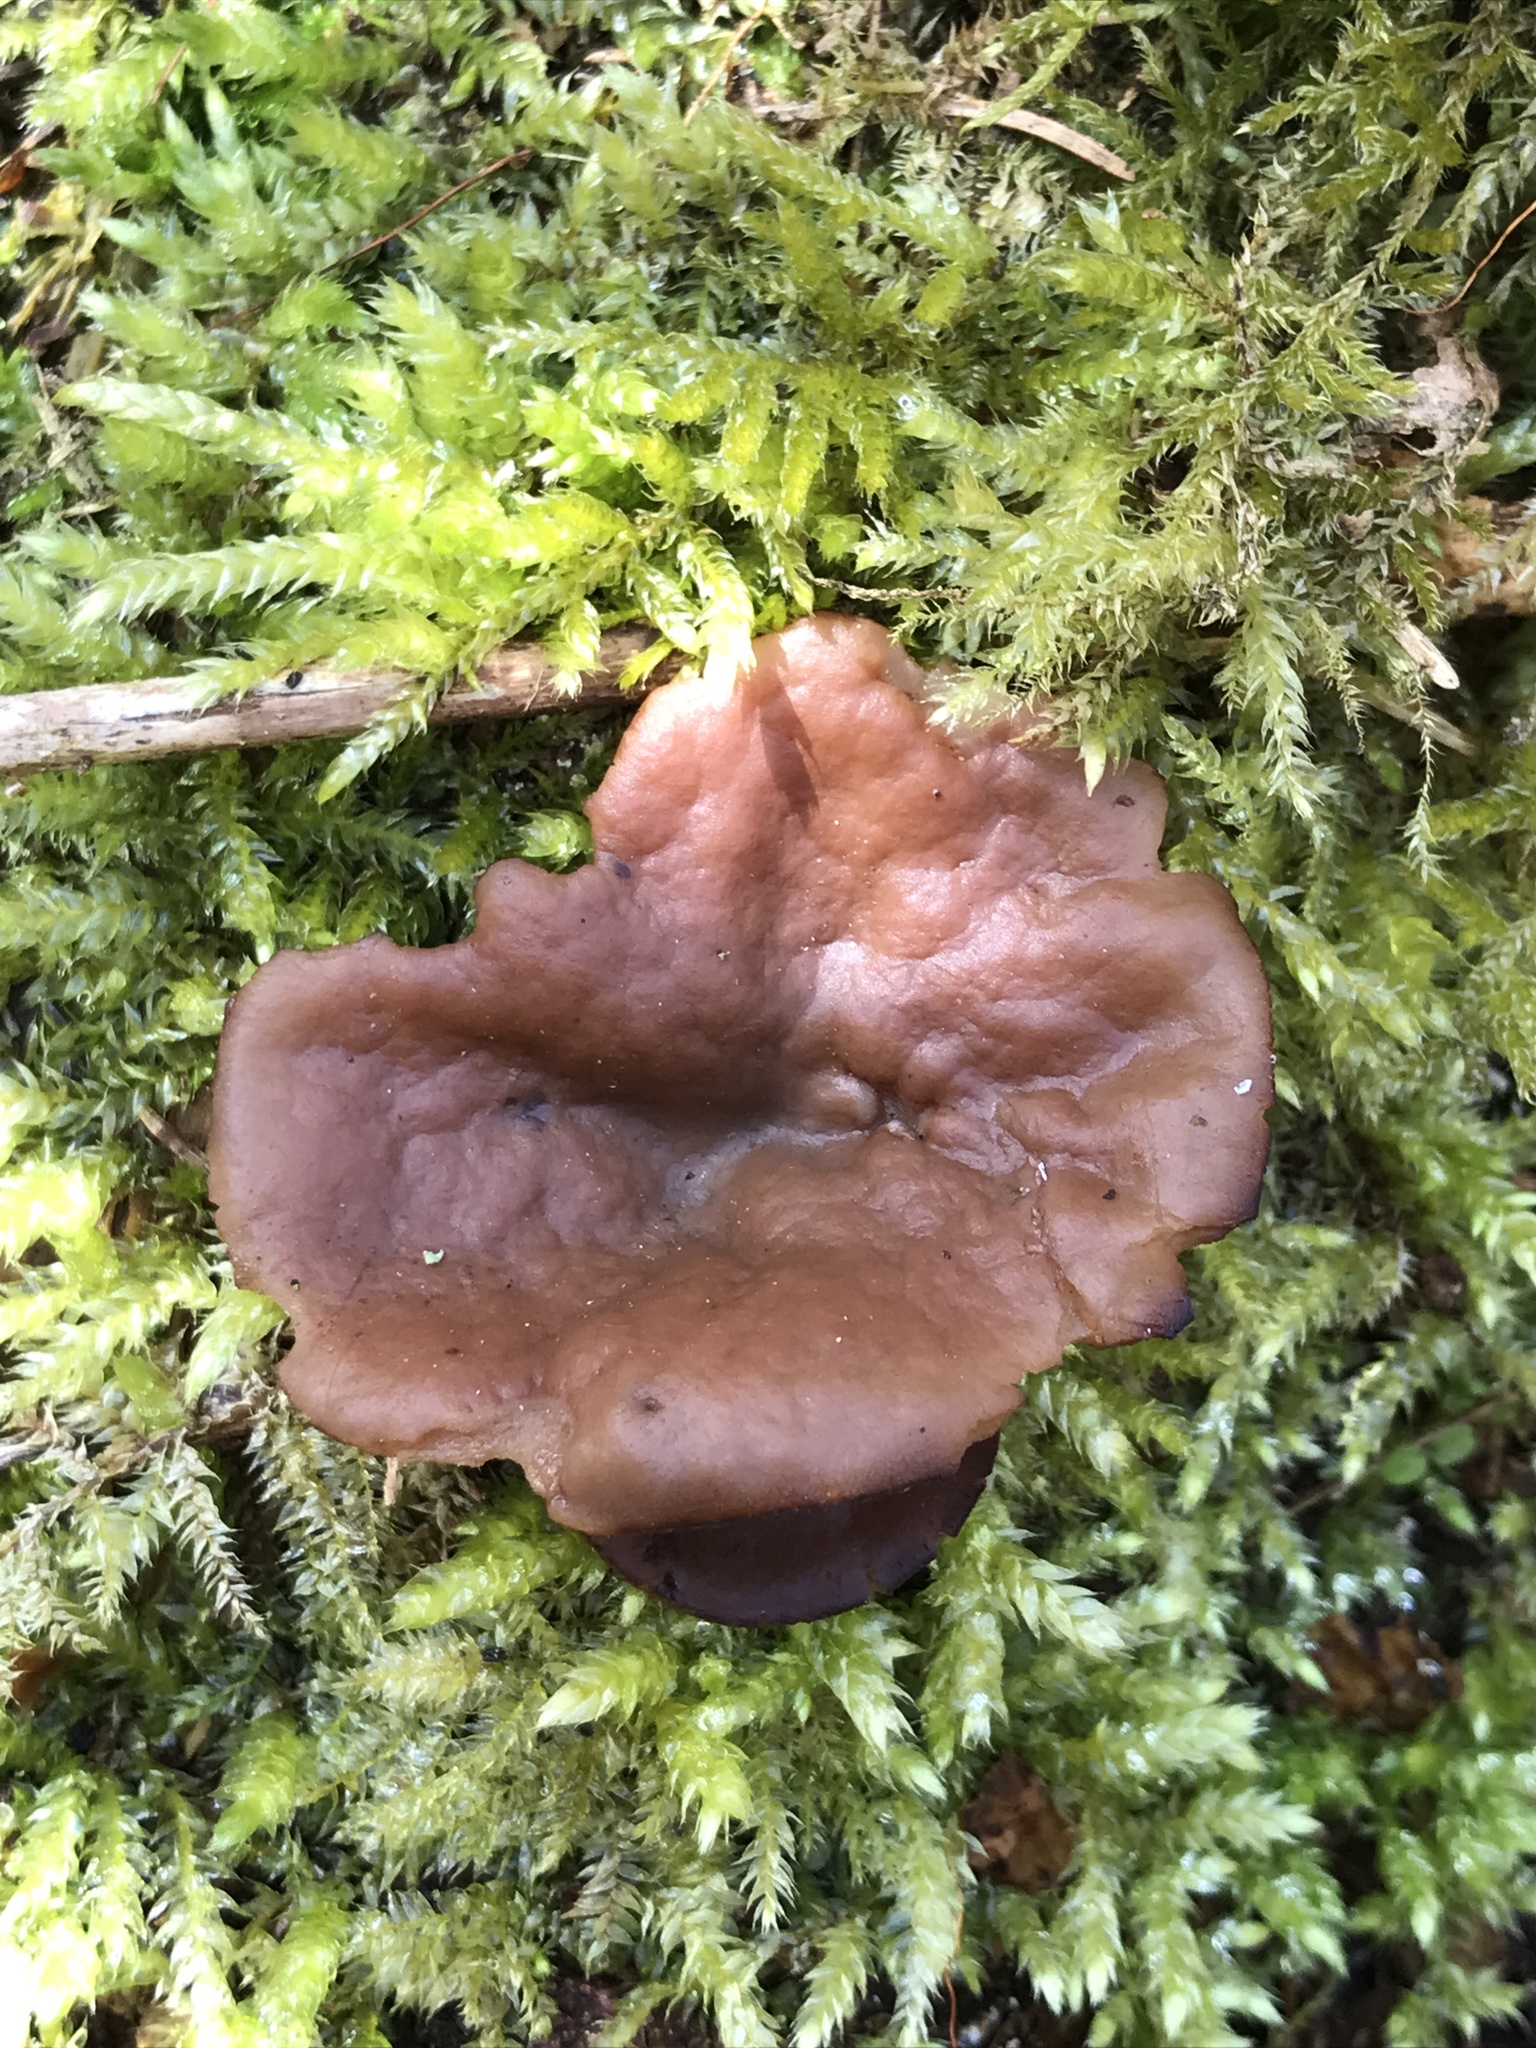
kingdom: Fungi
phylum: Ascomycota
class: Pezizomycetes
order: Pezizales
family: Discinaceae
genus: Discina
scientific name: Discina
